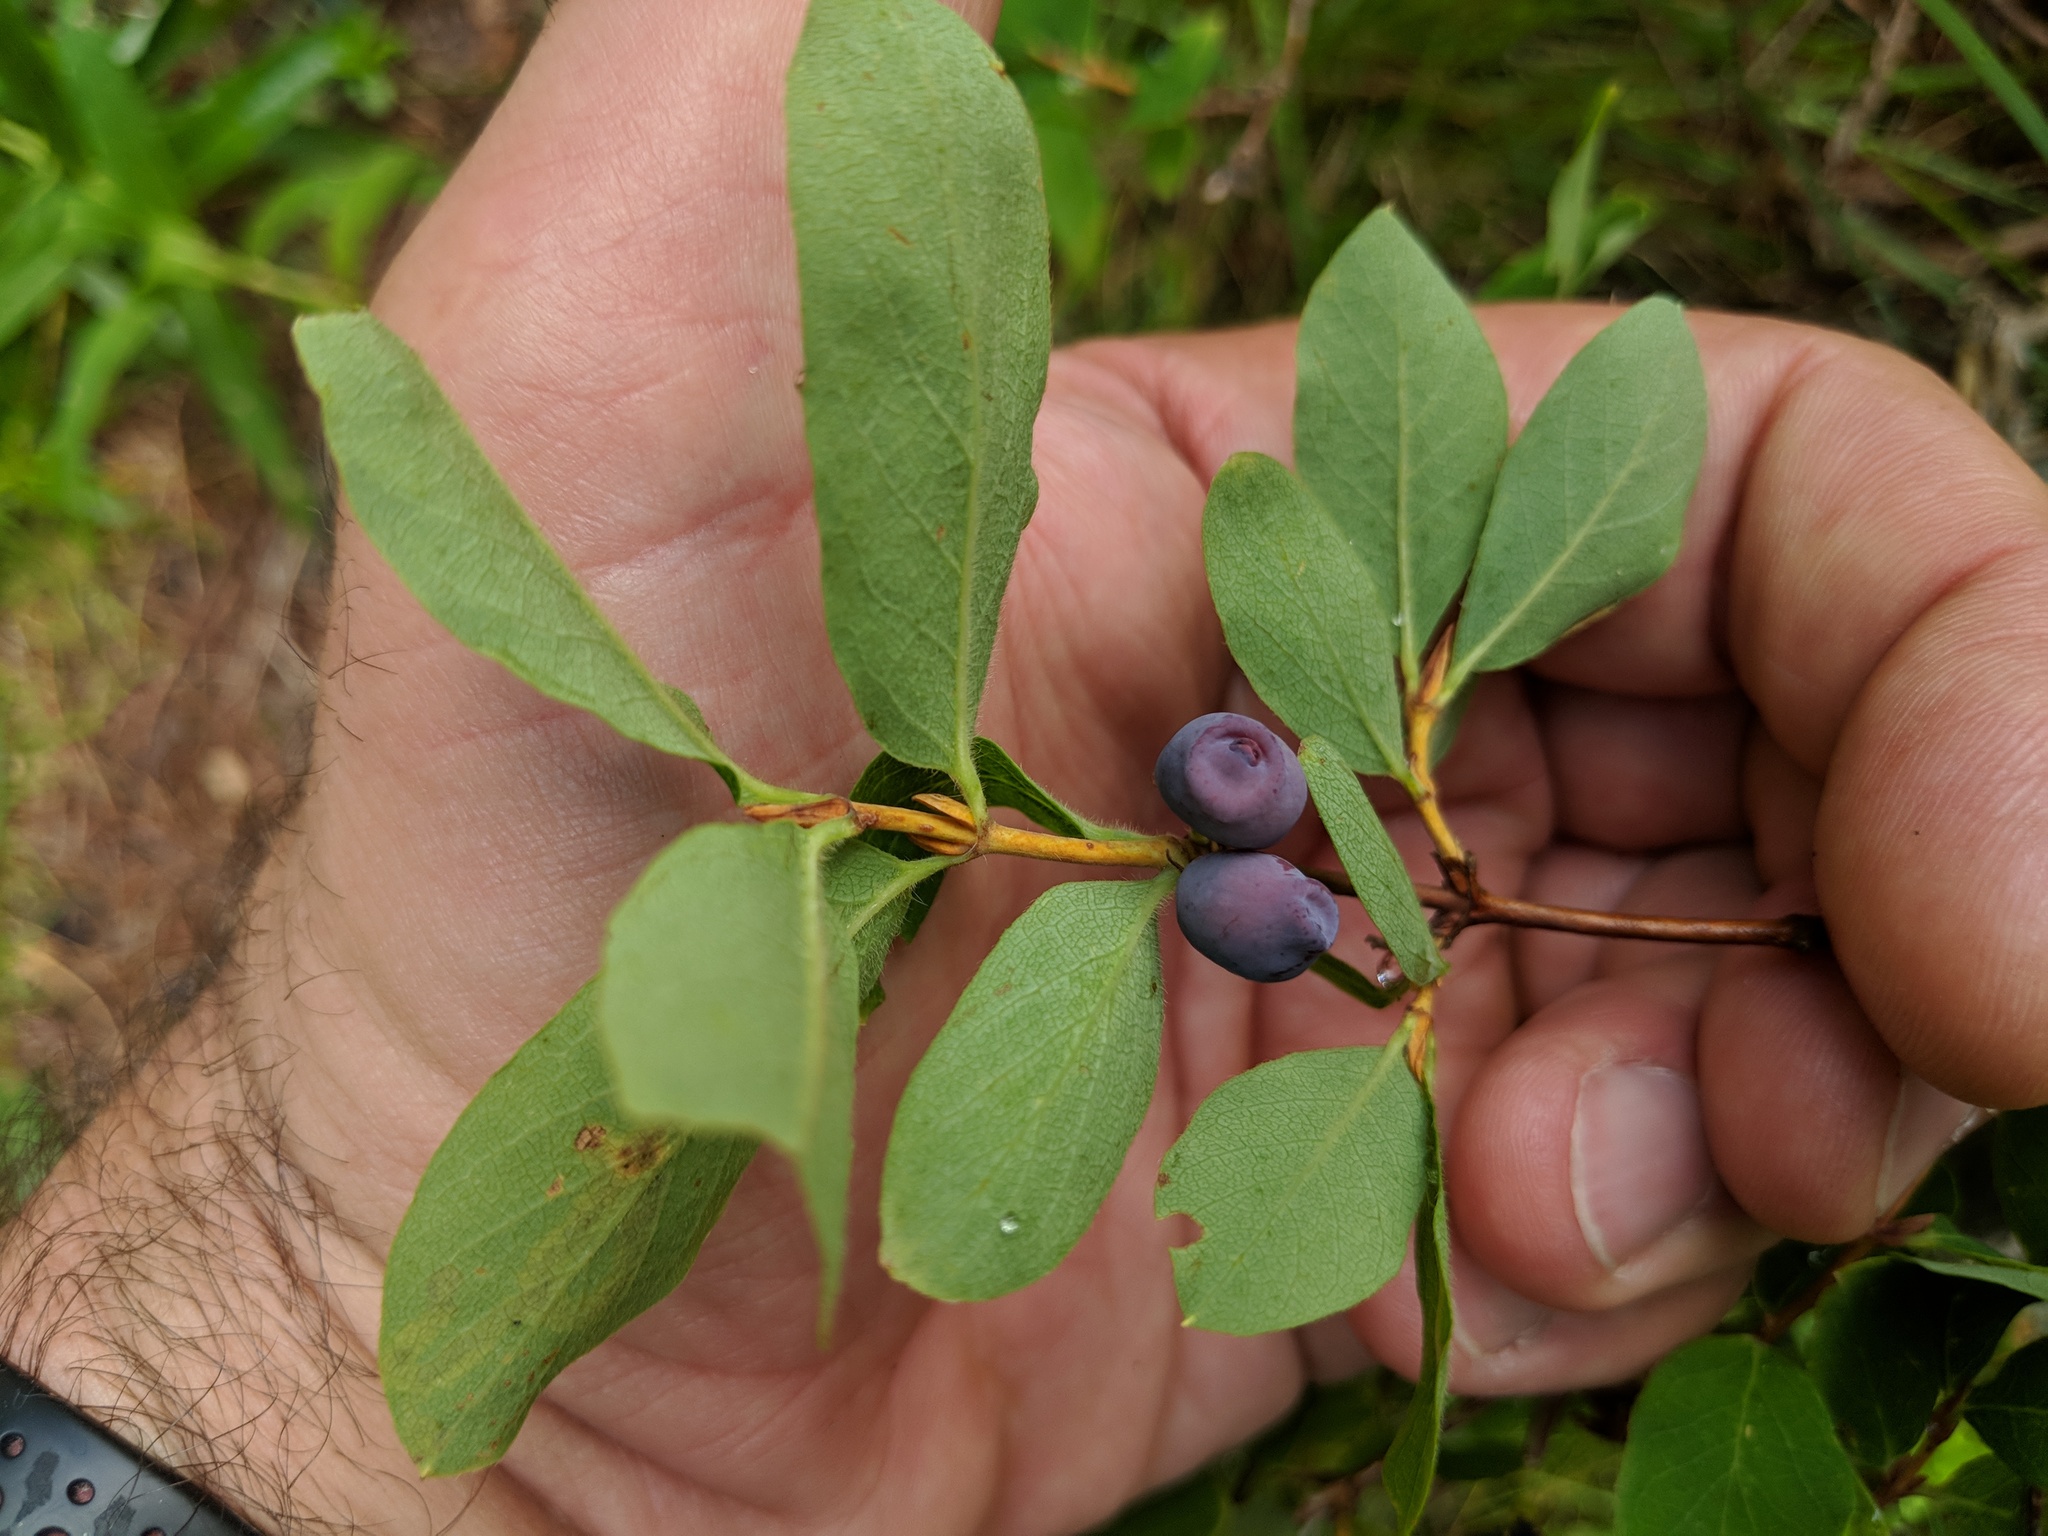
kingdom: Plantae
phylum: Tracheophyta
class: Magnoliopsida
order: Dipsacales
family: Caprifoliaceae
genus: Lonicera
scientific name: Lonicera caerulea
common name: Blue honeysuckle
